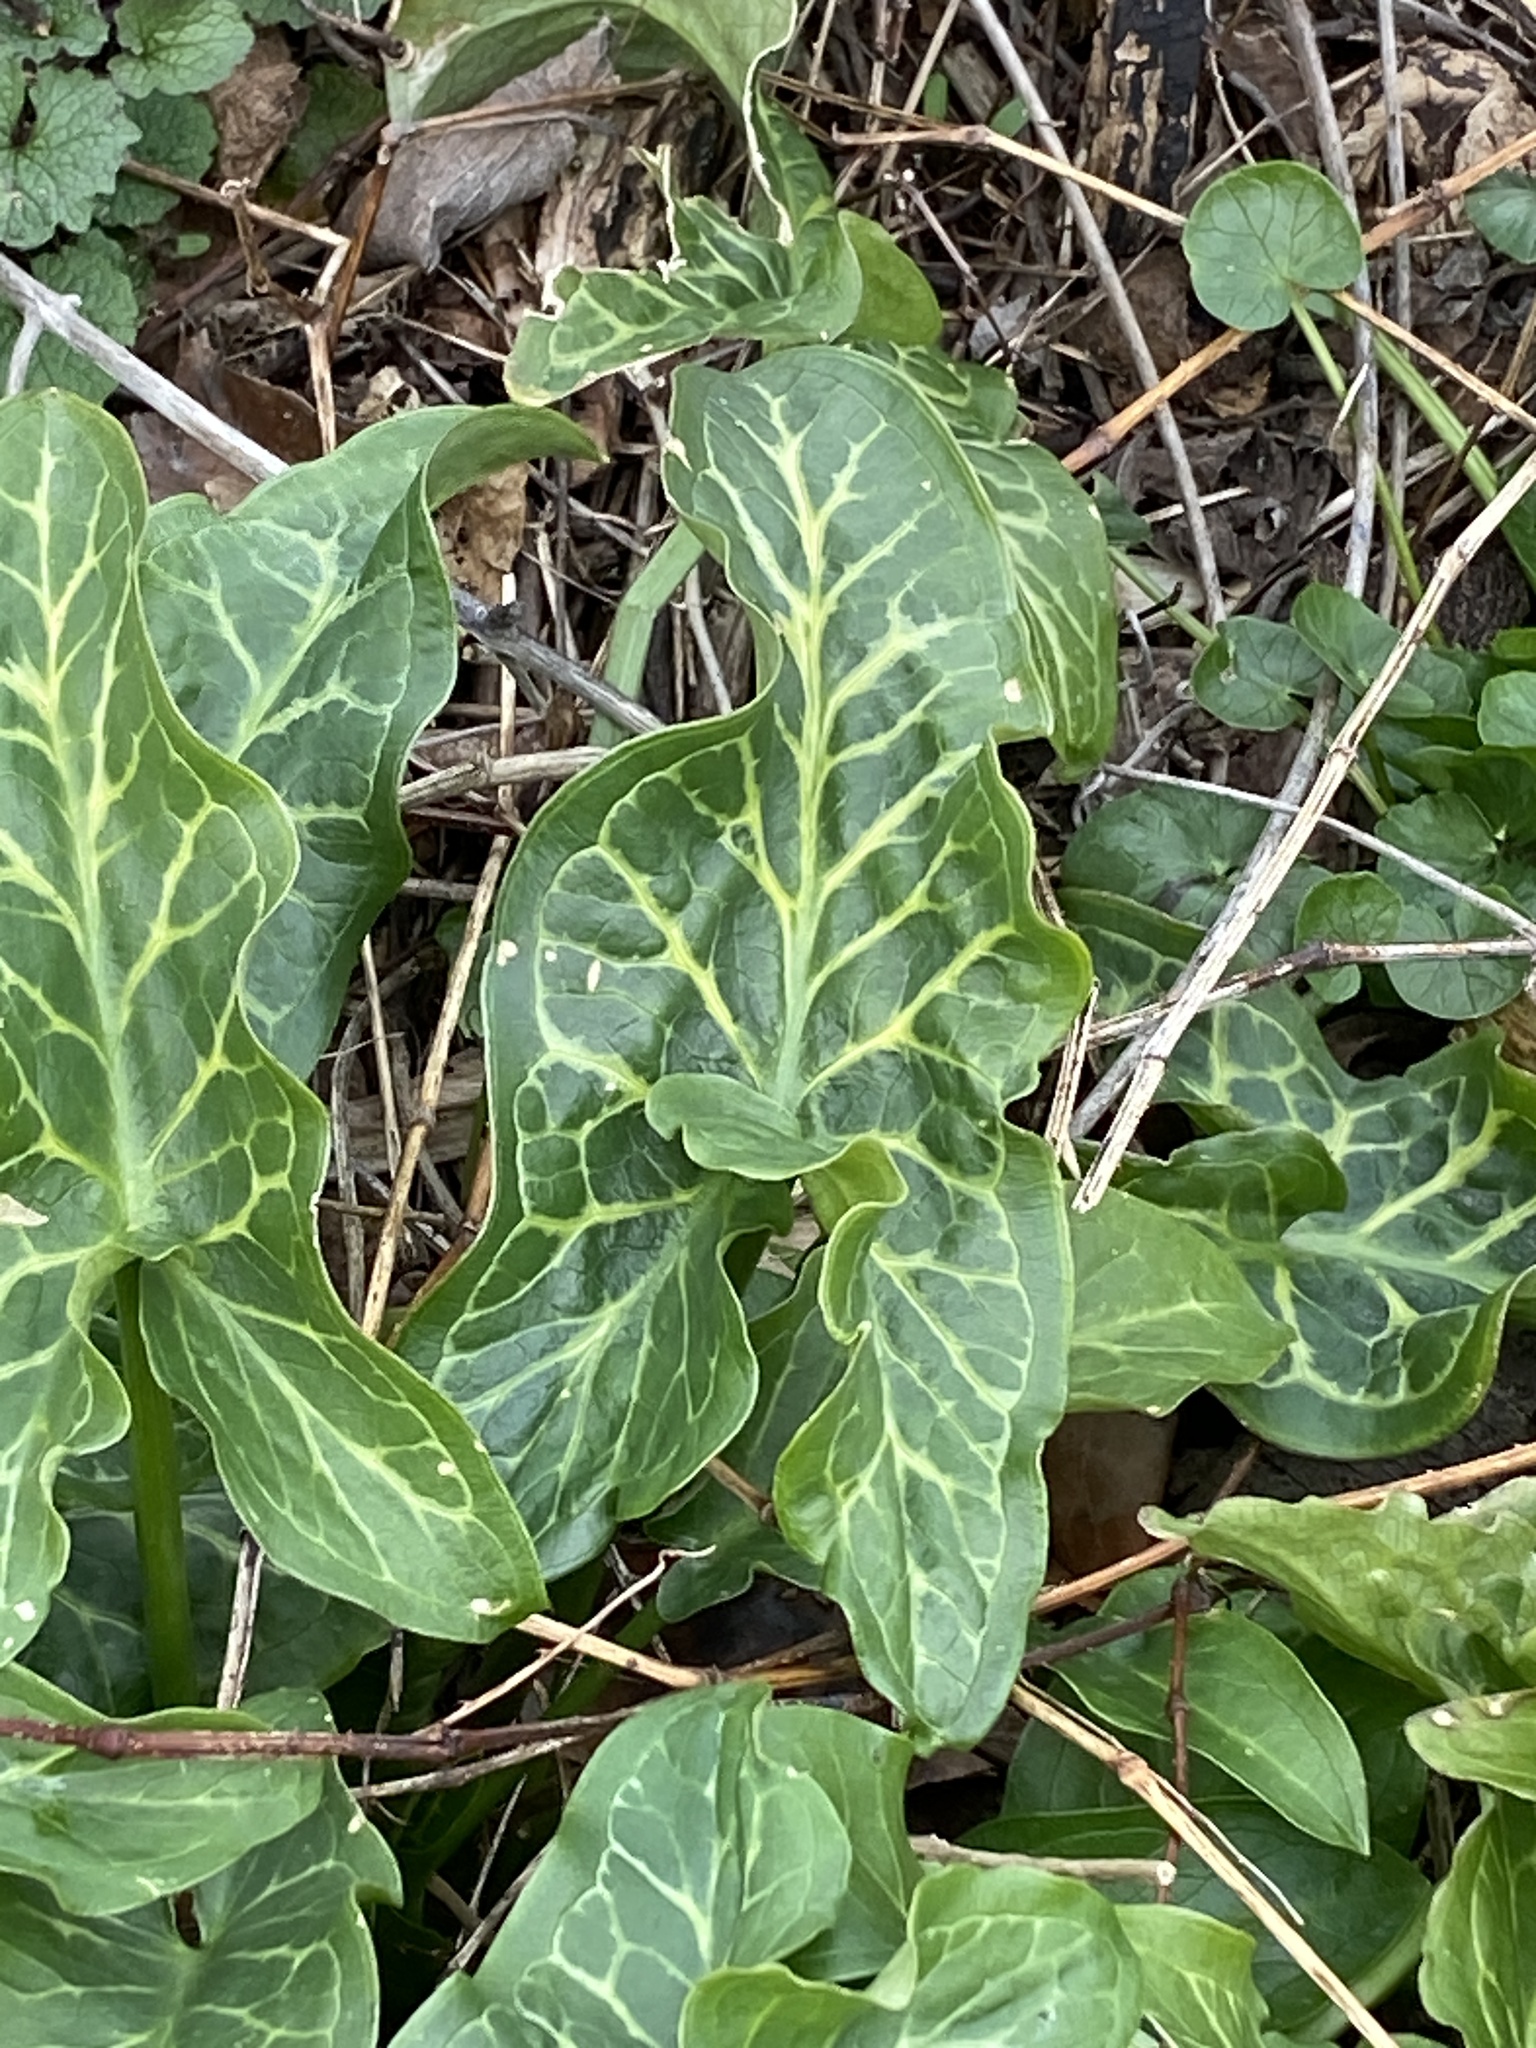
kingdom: Plantae
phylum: Tracheophyta
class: Liliopsida
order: Alismatales
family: Araceae
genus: Arum
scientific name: Arum italicum
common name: Italian lords-and-ladies
